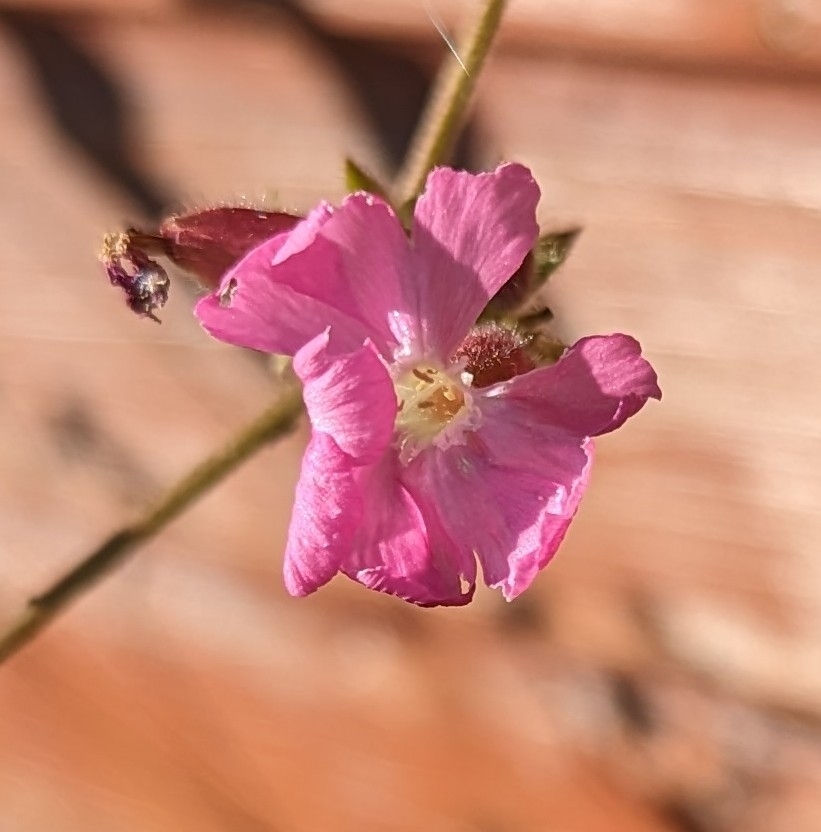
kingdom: Plantae
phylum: Tracheophyta
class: Magnoliopsida
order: Caryophyllales
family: Caryophyllaceae
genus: Silene
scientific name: Silene dioica
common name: Red campion
